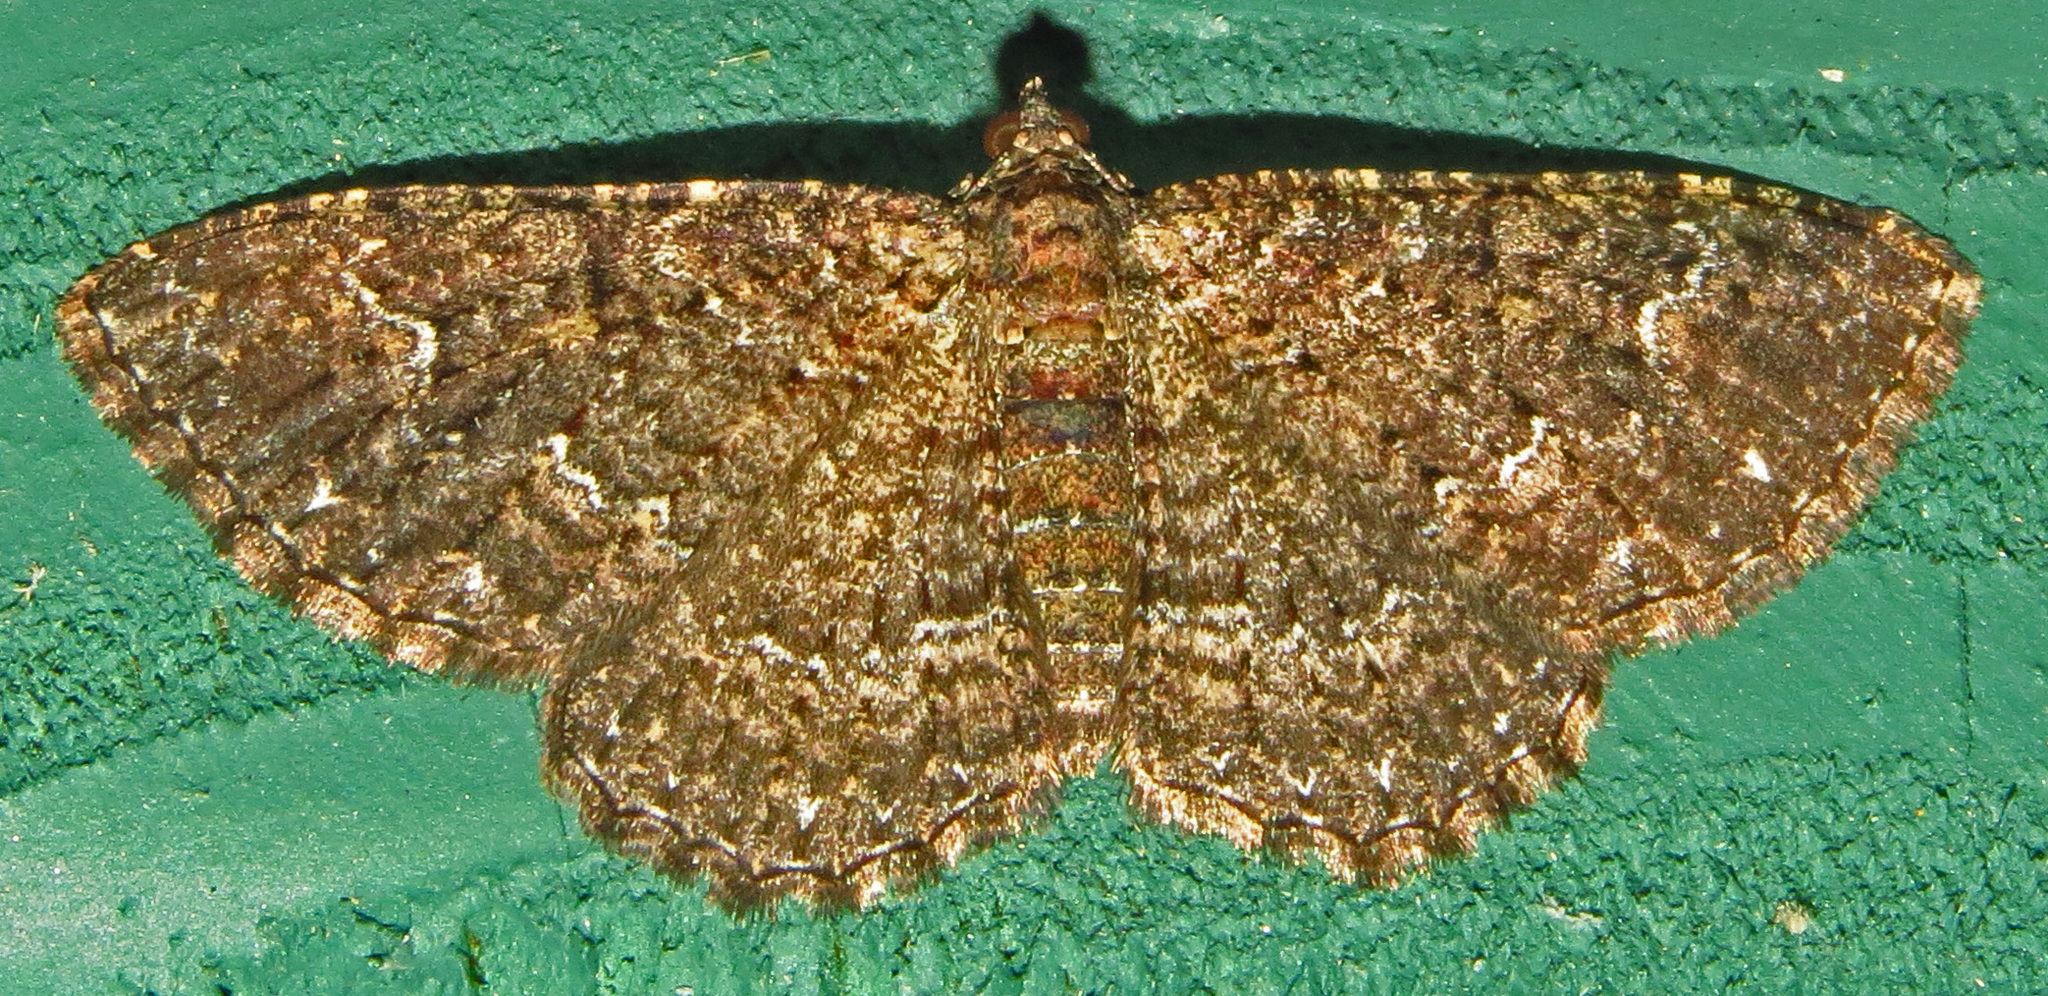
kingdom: Animalia
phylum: Arthropoda
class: Insecta
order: Lepidoptera
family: Geometridae
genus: Disclisioprocta
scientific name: Disclisioprocta stellata
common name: Somber carpet
